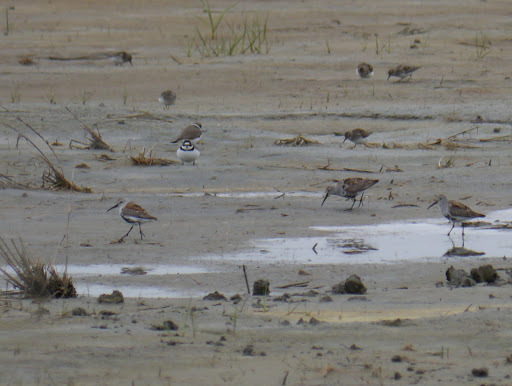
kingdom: Animalia
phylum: Chordata
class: Aves
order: Charadriiformes
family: Scolopacidae
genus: Calidris
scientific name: Calidris minutilla
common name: Least sandpiper
